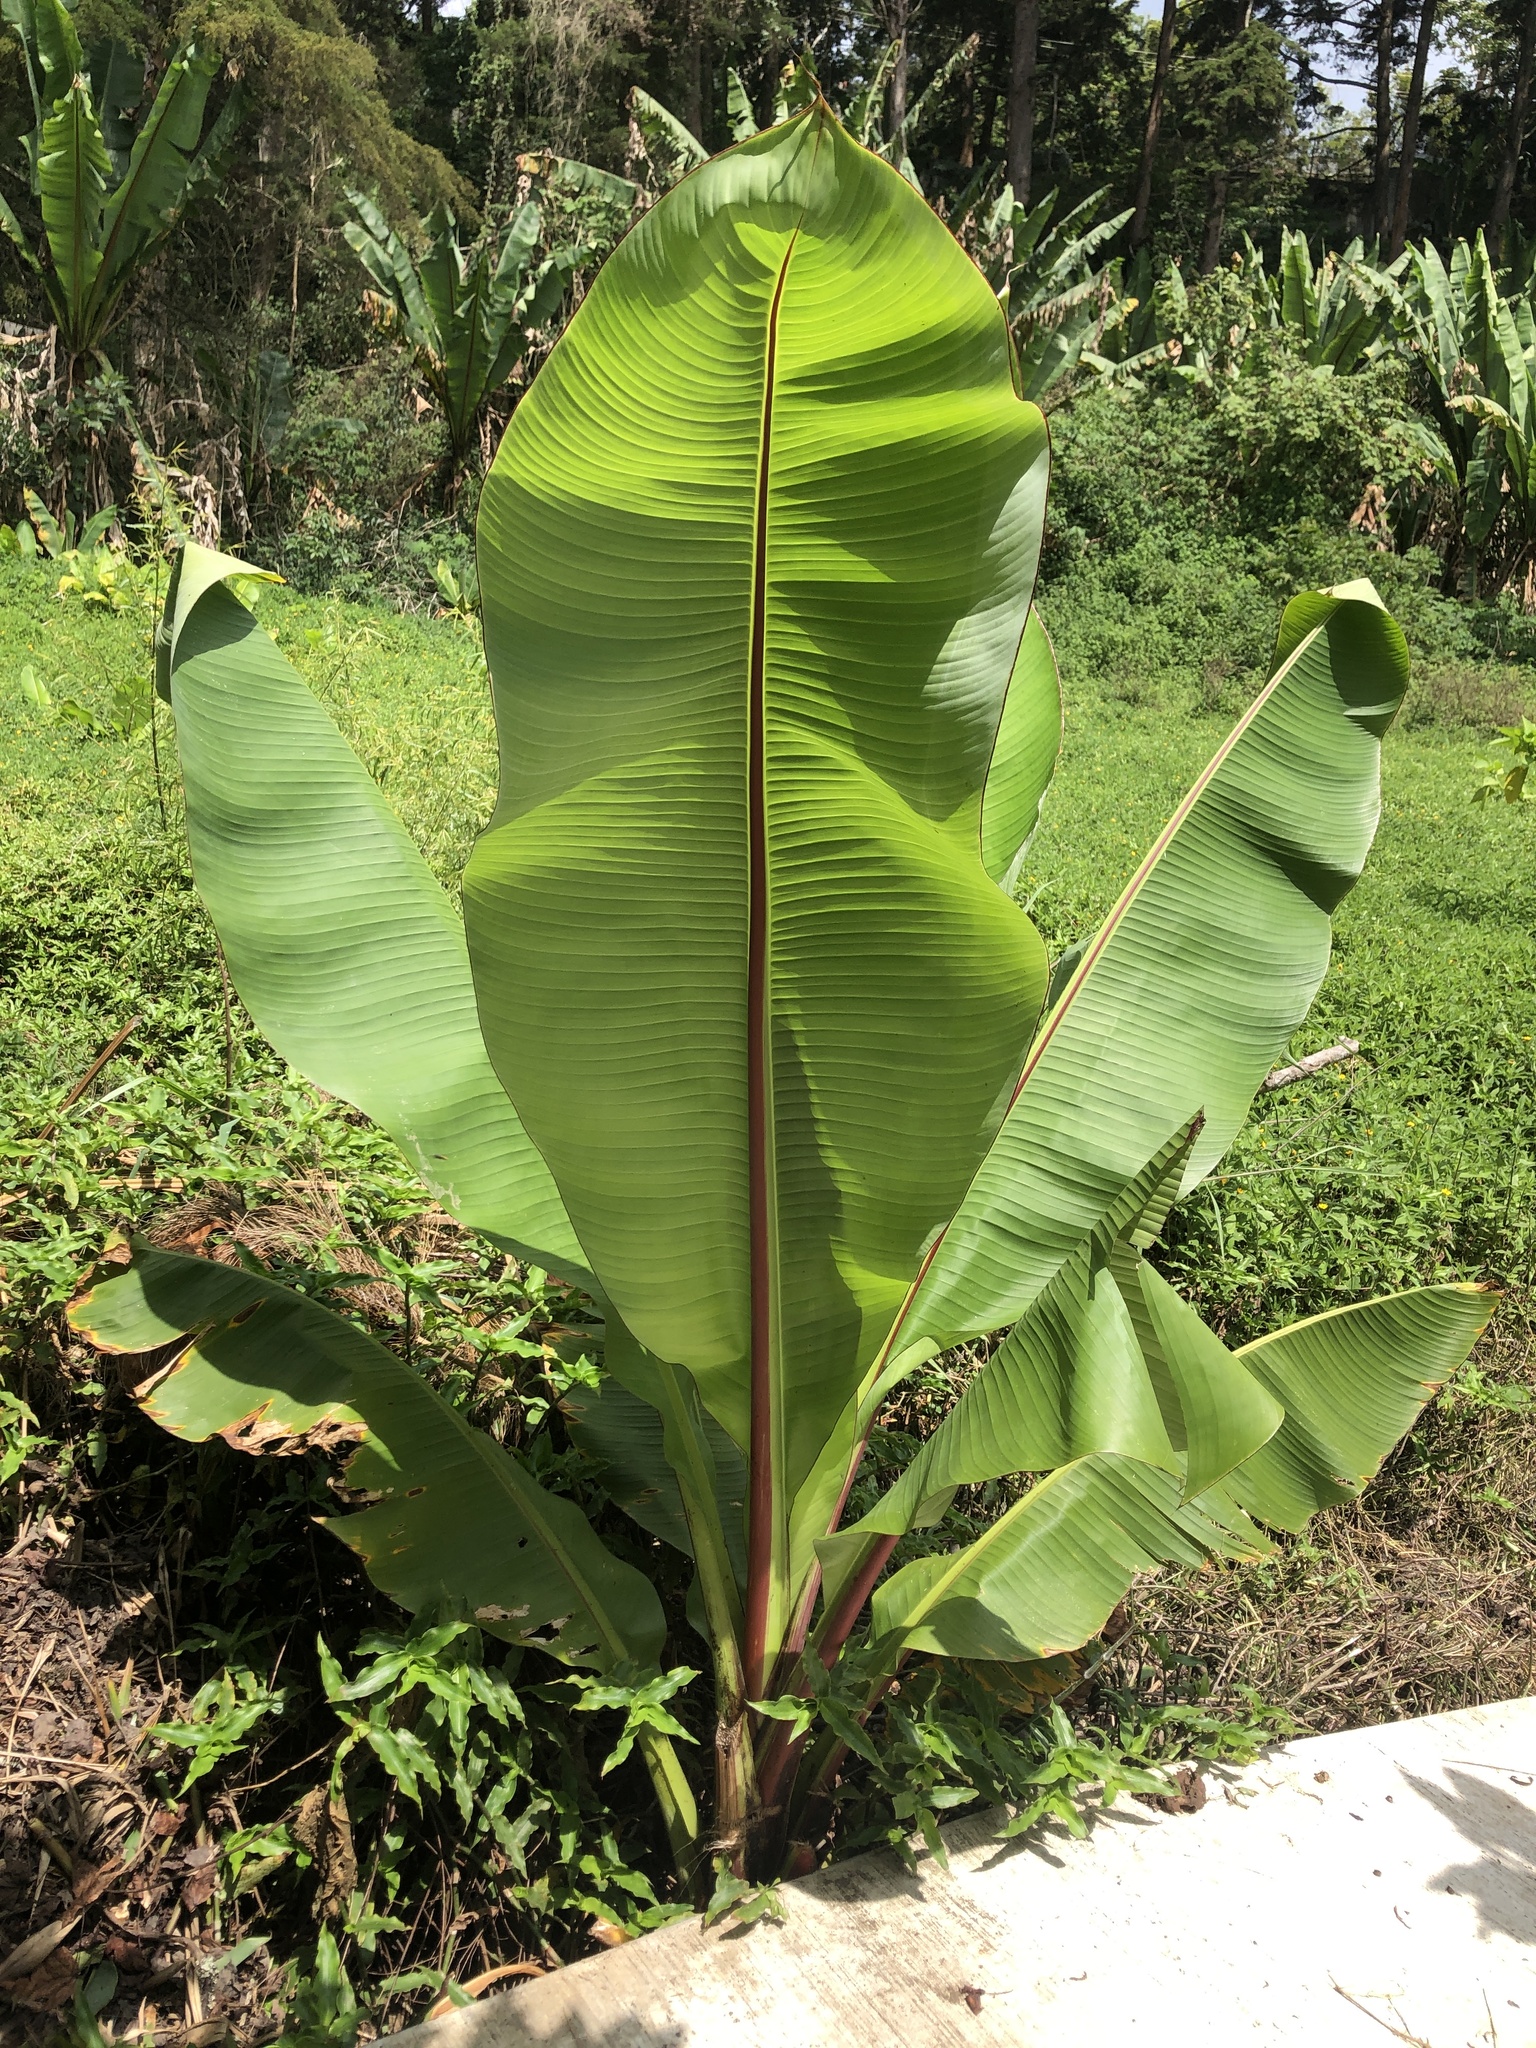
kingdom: Plantae
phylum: Tracheophyta
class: Liliopsida
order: Zingiberales
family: Musaceae
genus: Ensete
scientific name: Ensete ventricosum
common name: Abyssinian banana
